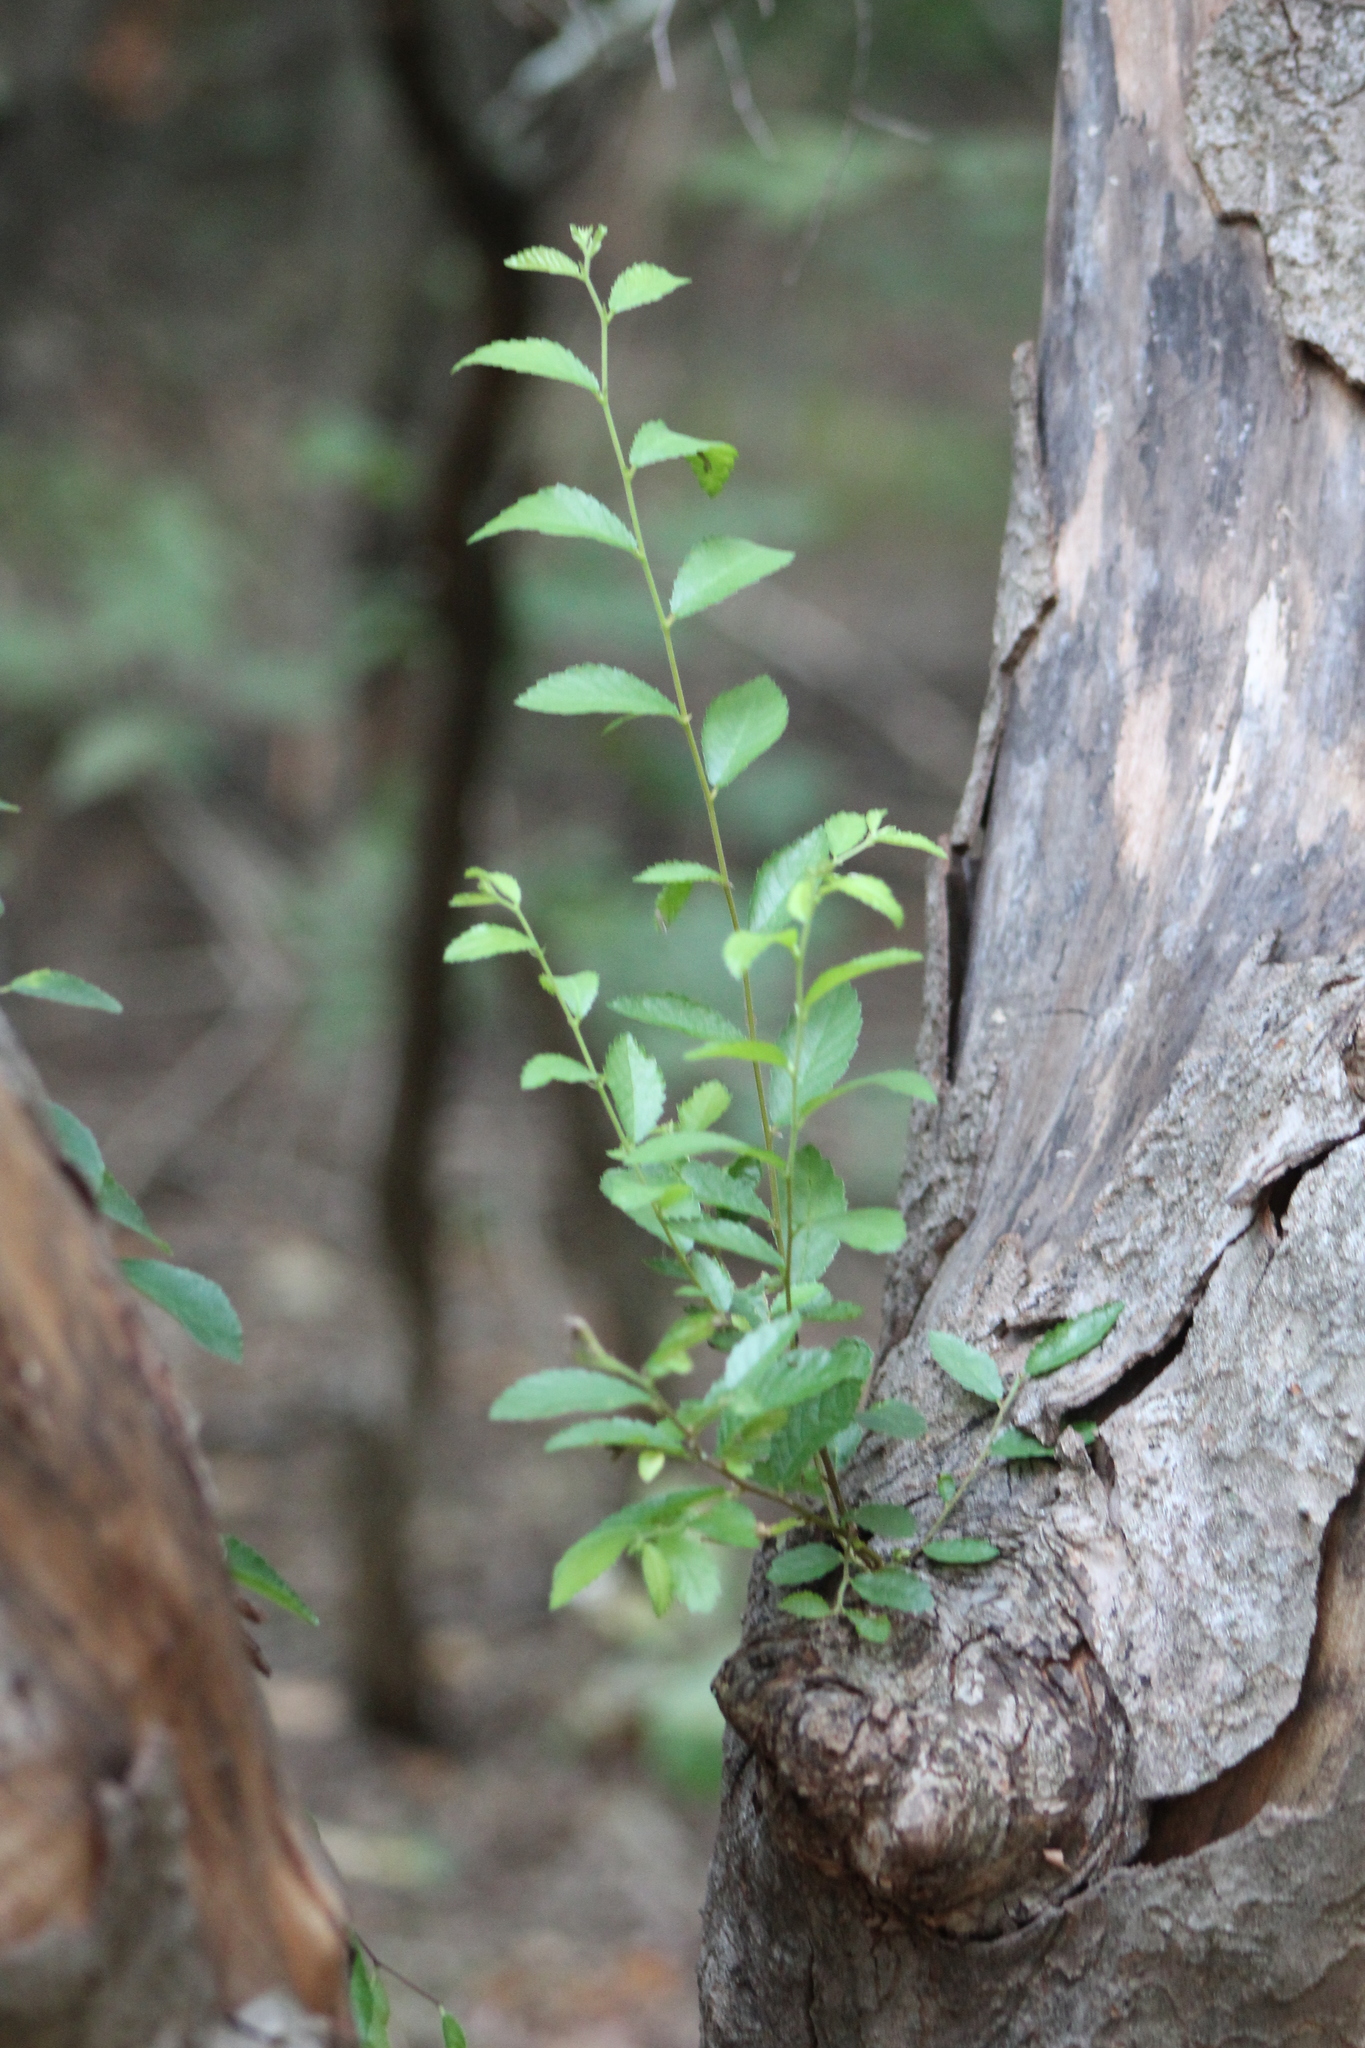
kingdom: Plantae
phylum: Tracheophyta
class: Magnoliopsida
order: Rosales
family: Ulmaceae
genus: Ulmus
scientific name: Ulmus parvifolia
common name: Chinese elm
